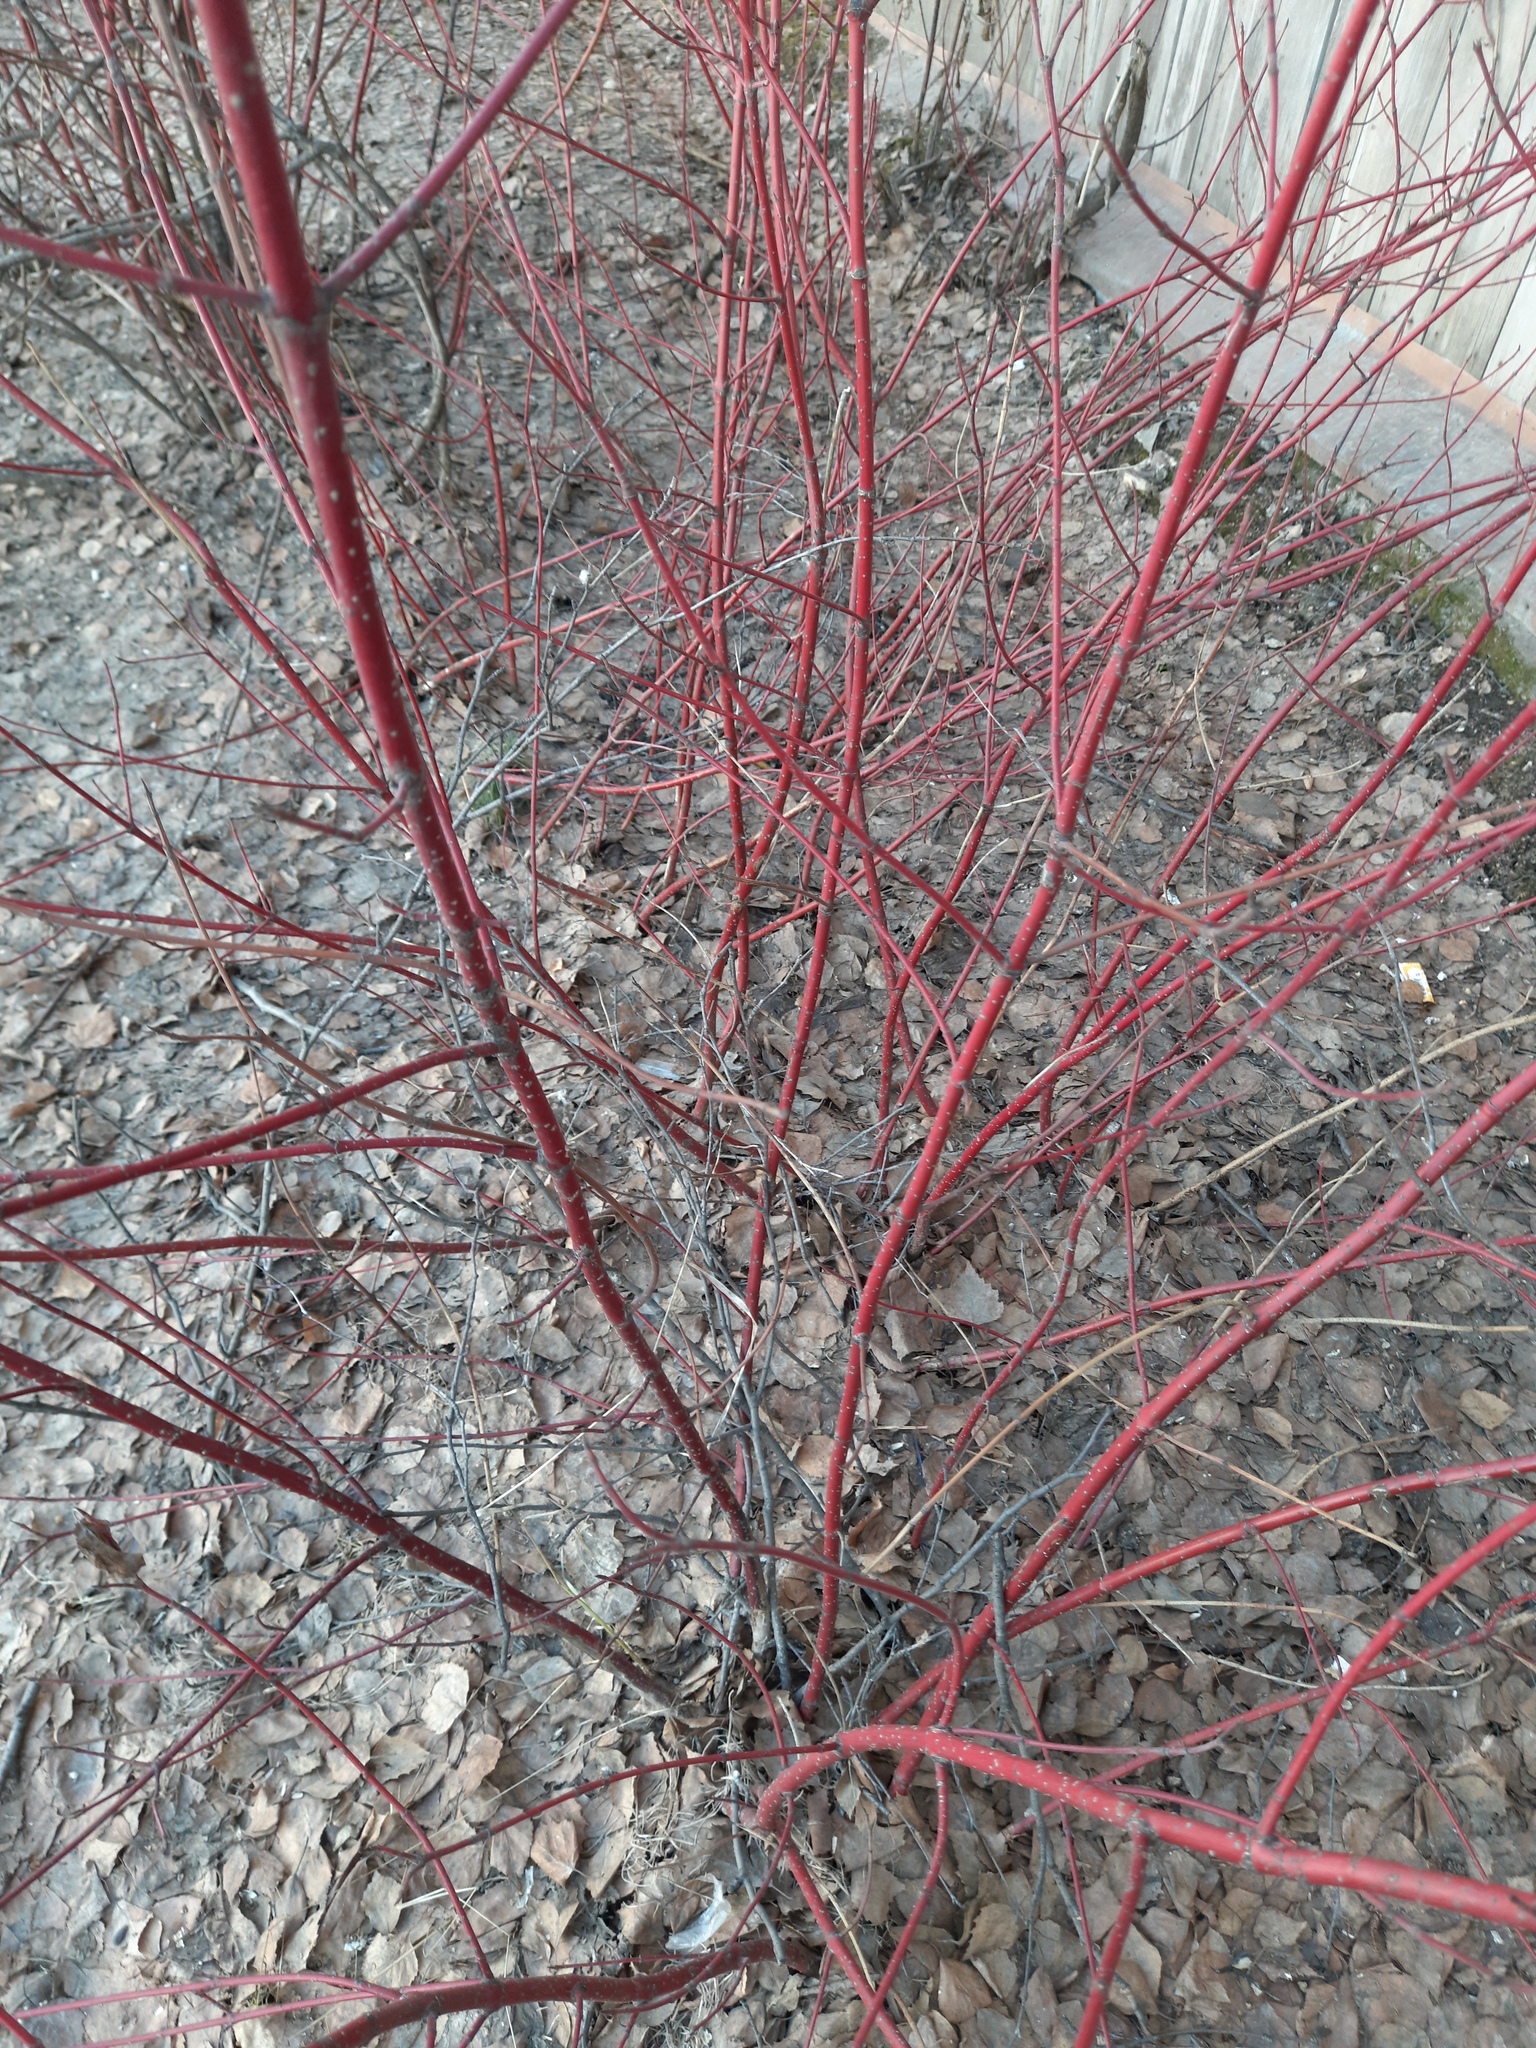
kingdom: Plantae
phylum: Tracheophyta
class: Magnoliopsida
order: Cornales
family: Cornaceae
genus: Cornus
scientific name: Cornus alba
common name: White dogwood
